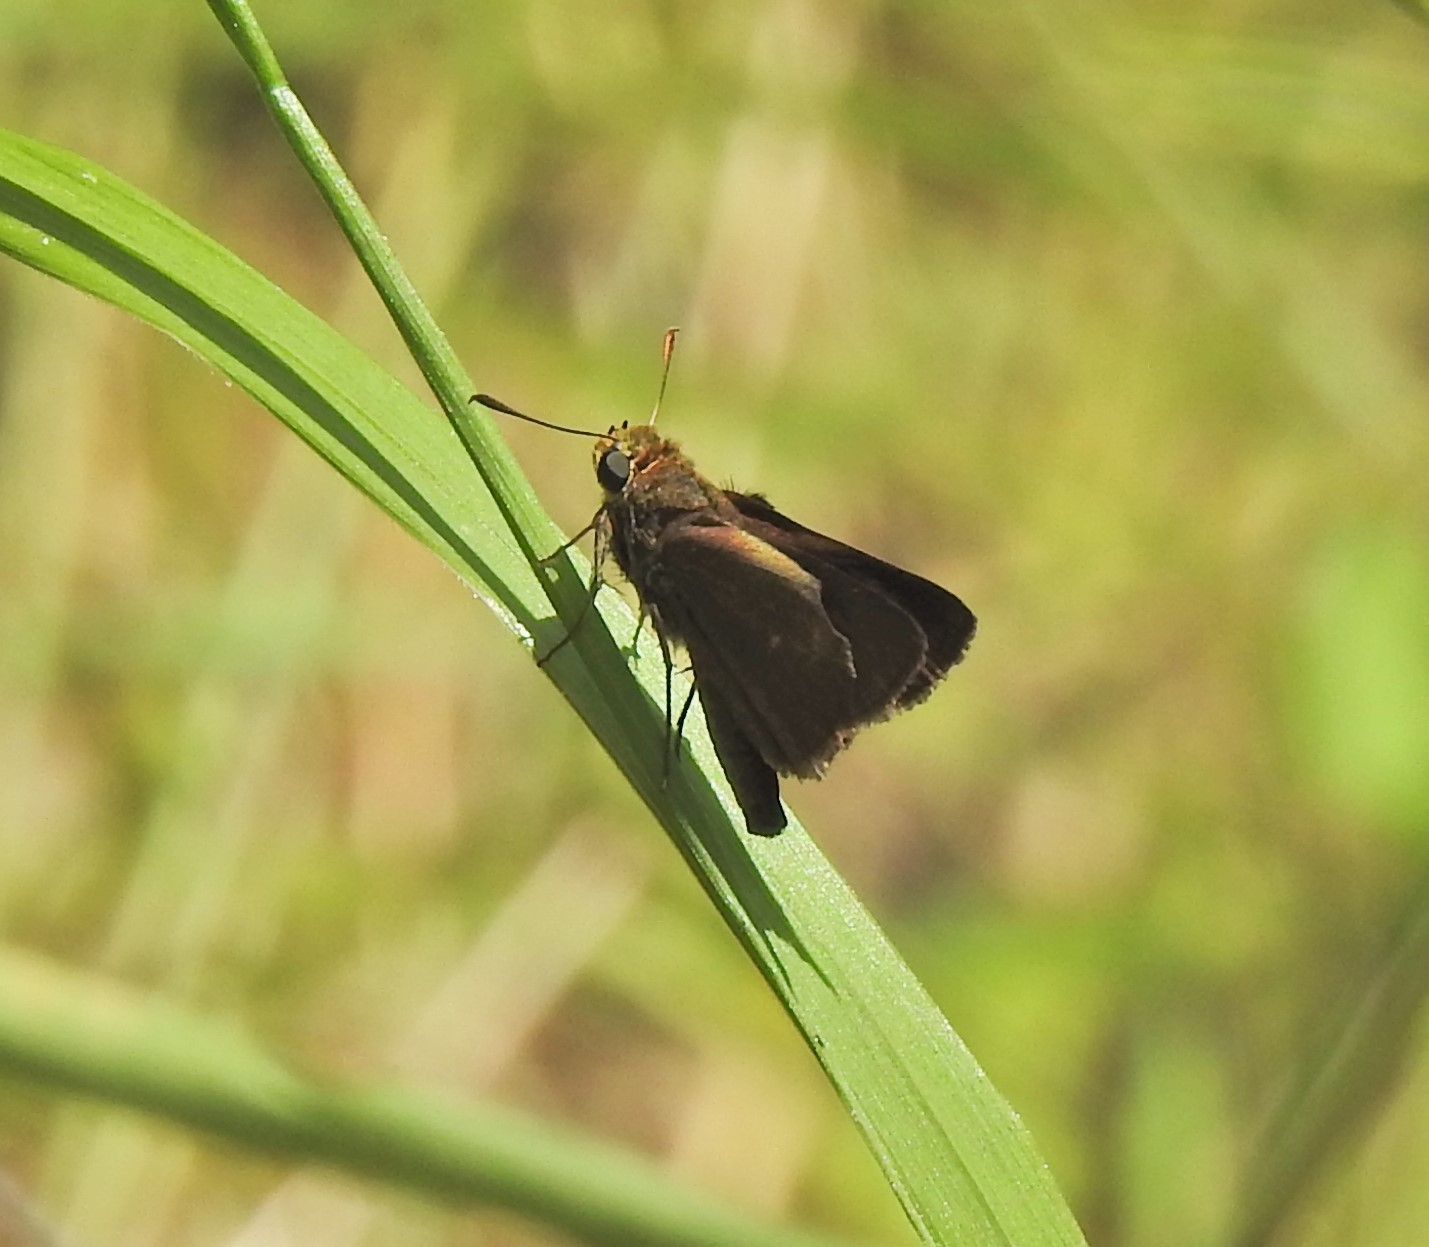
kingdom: Animalia
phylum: Arthropoda
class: Insecta
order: Lepidoptera
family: Hesperiidae
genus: Euphyes
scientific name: Euphyes vestris
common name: Dun skipper
